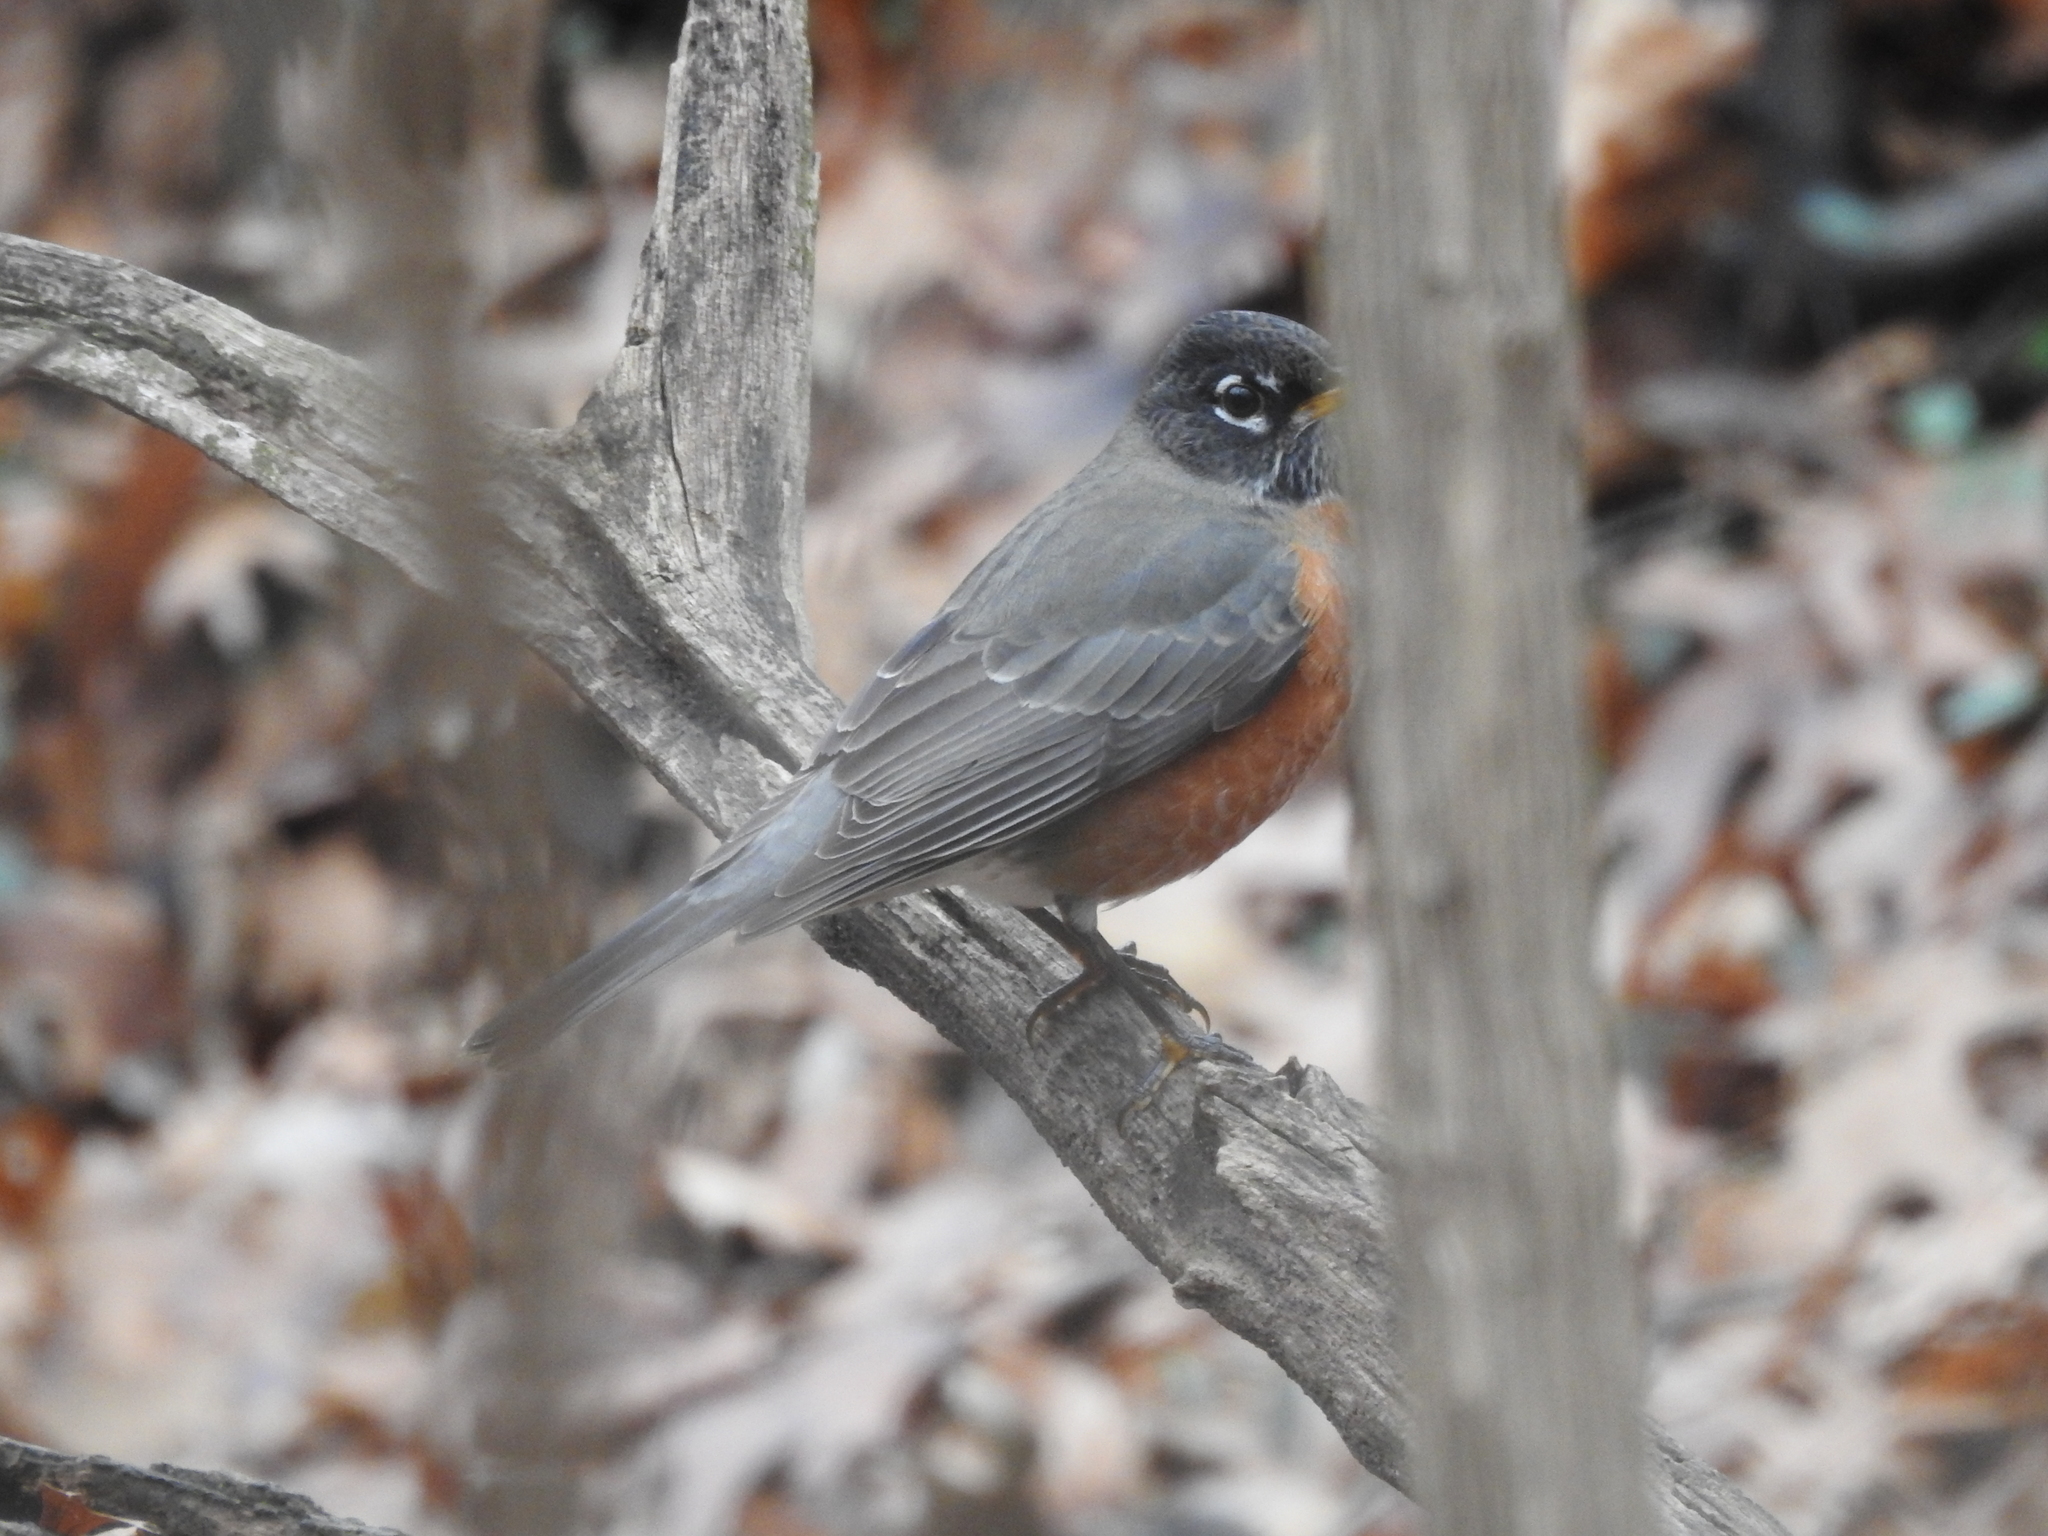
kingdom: Animalia
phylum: Chordata
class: Aves
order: Passeriformes
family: Turdidae
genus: Turdus
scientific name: Turdus migratorius
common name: American robin
